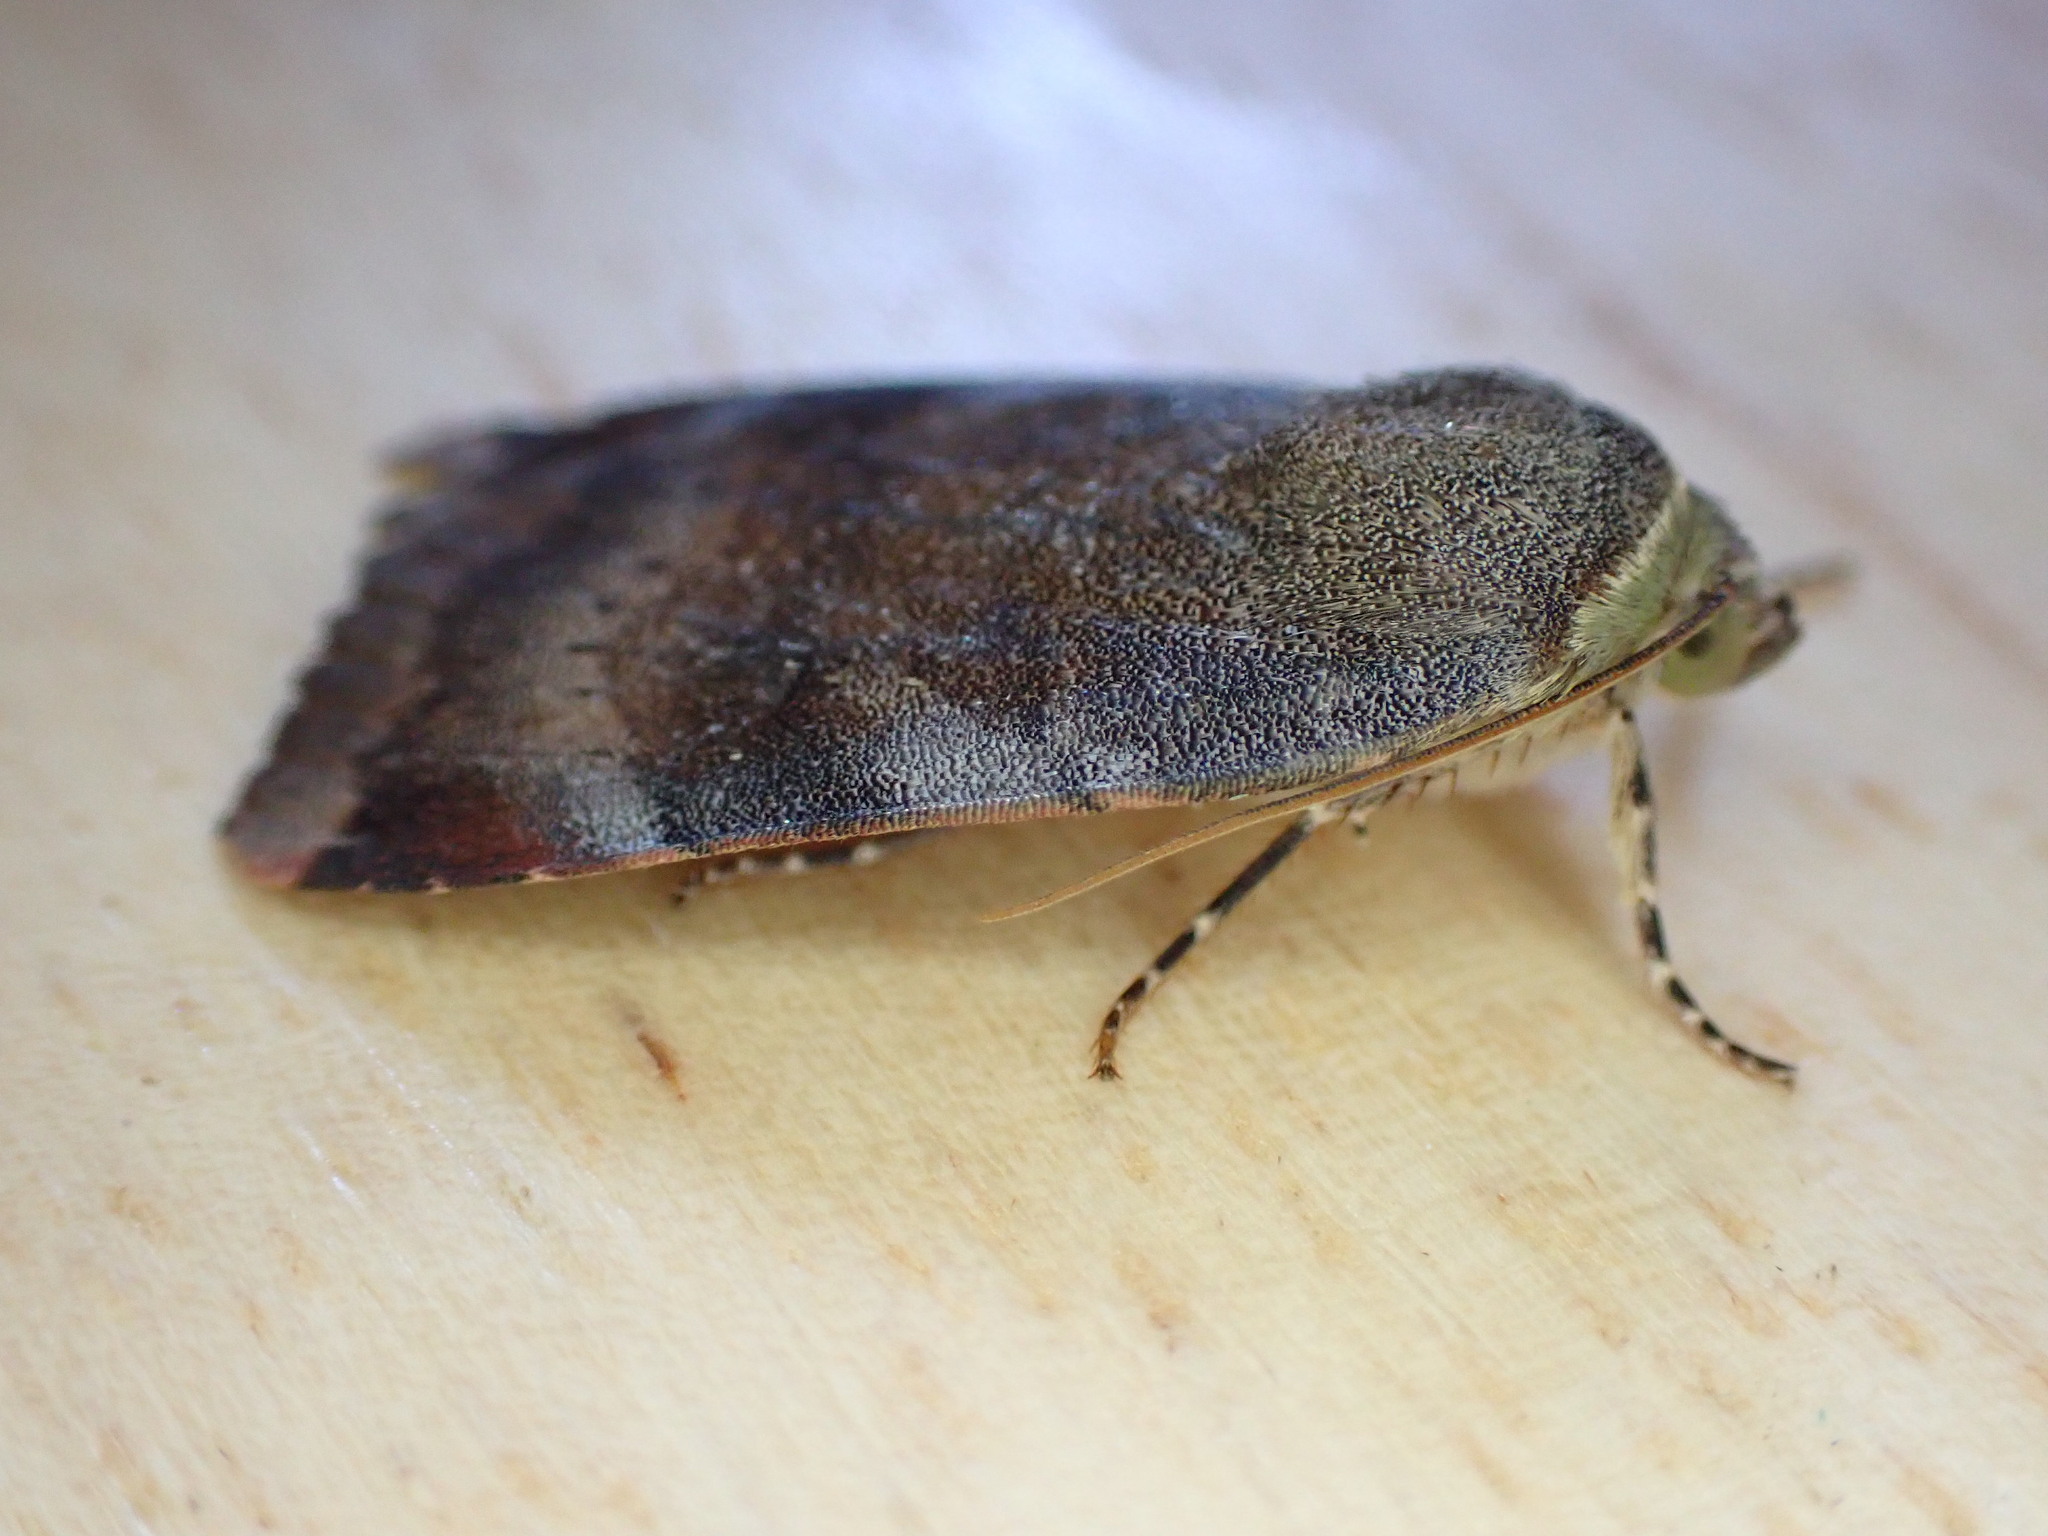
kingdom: Animalia
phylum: Arthropoda
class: Insecta
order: Lepidoptera
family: Noctuidae
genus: Noctua
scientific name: Noctua janthe
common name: Lesser broad-bordered yellow underwing
